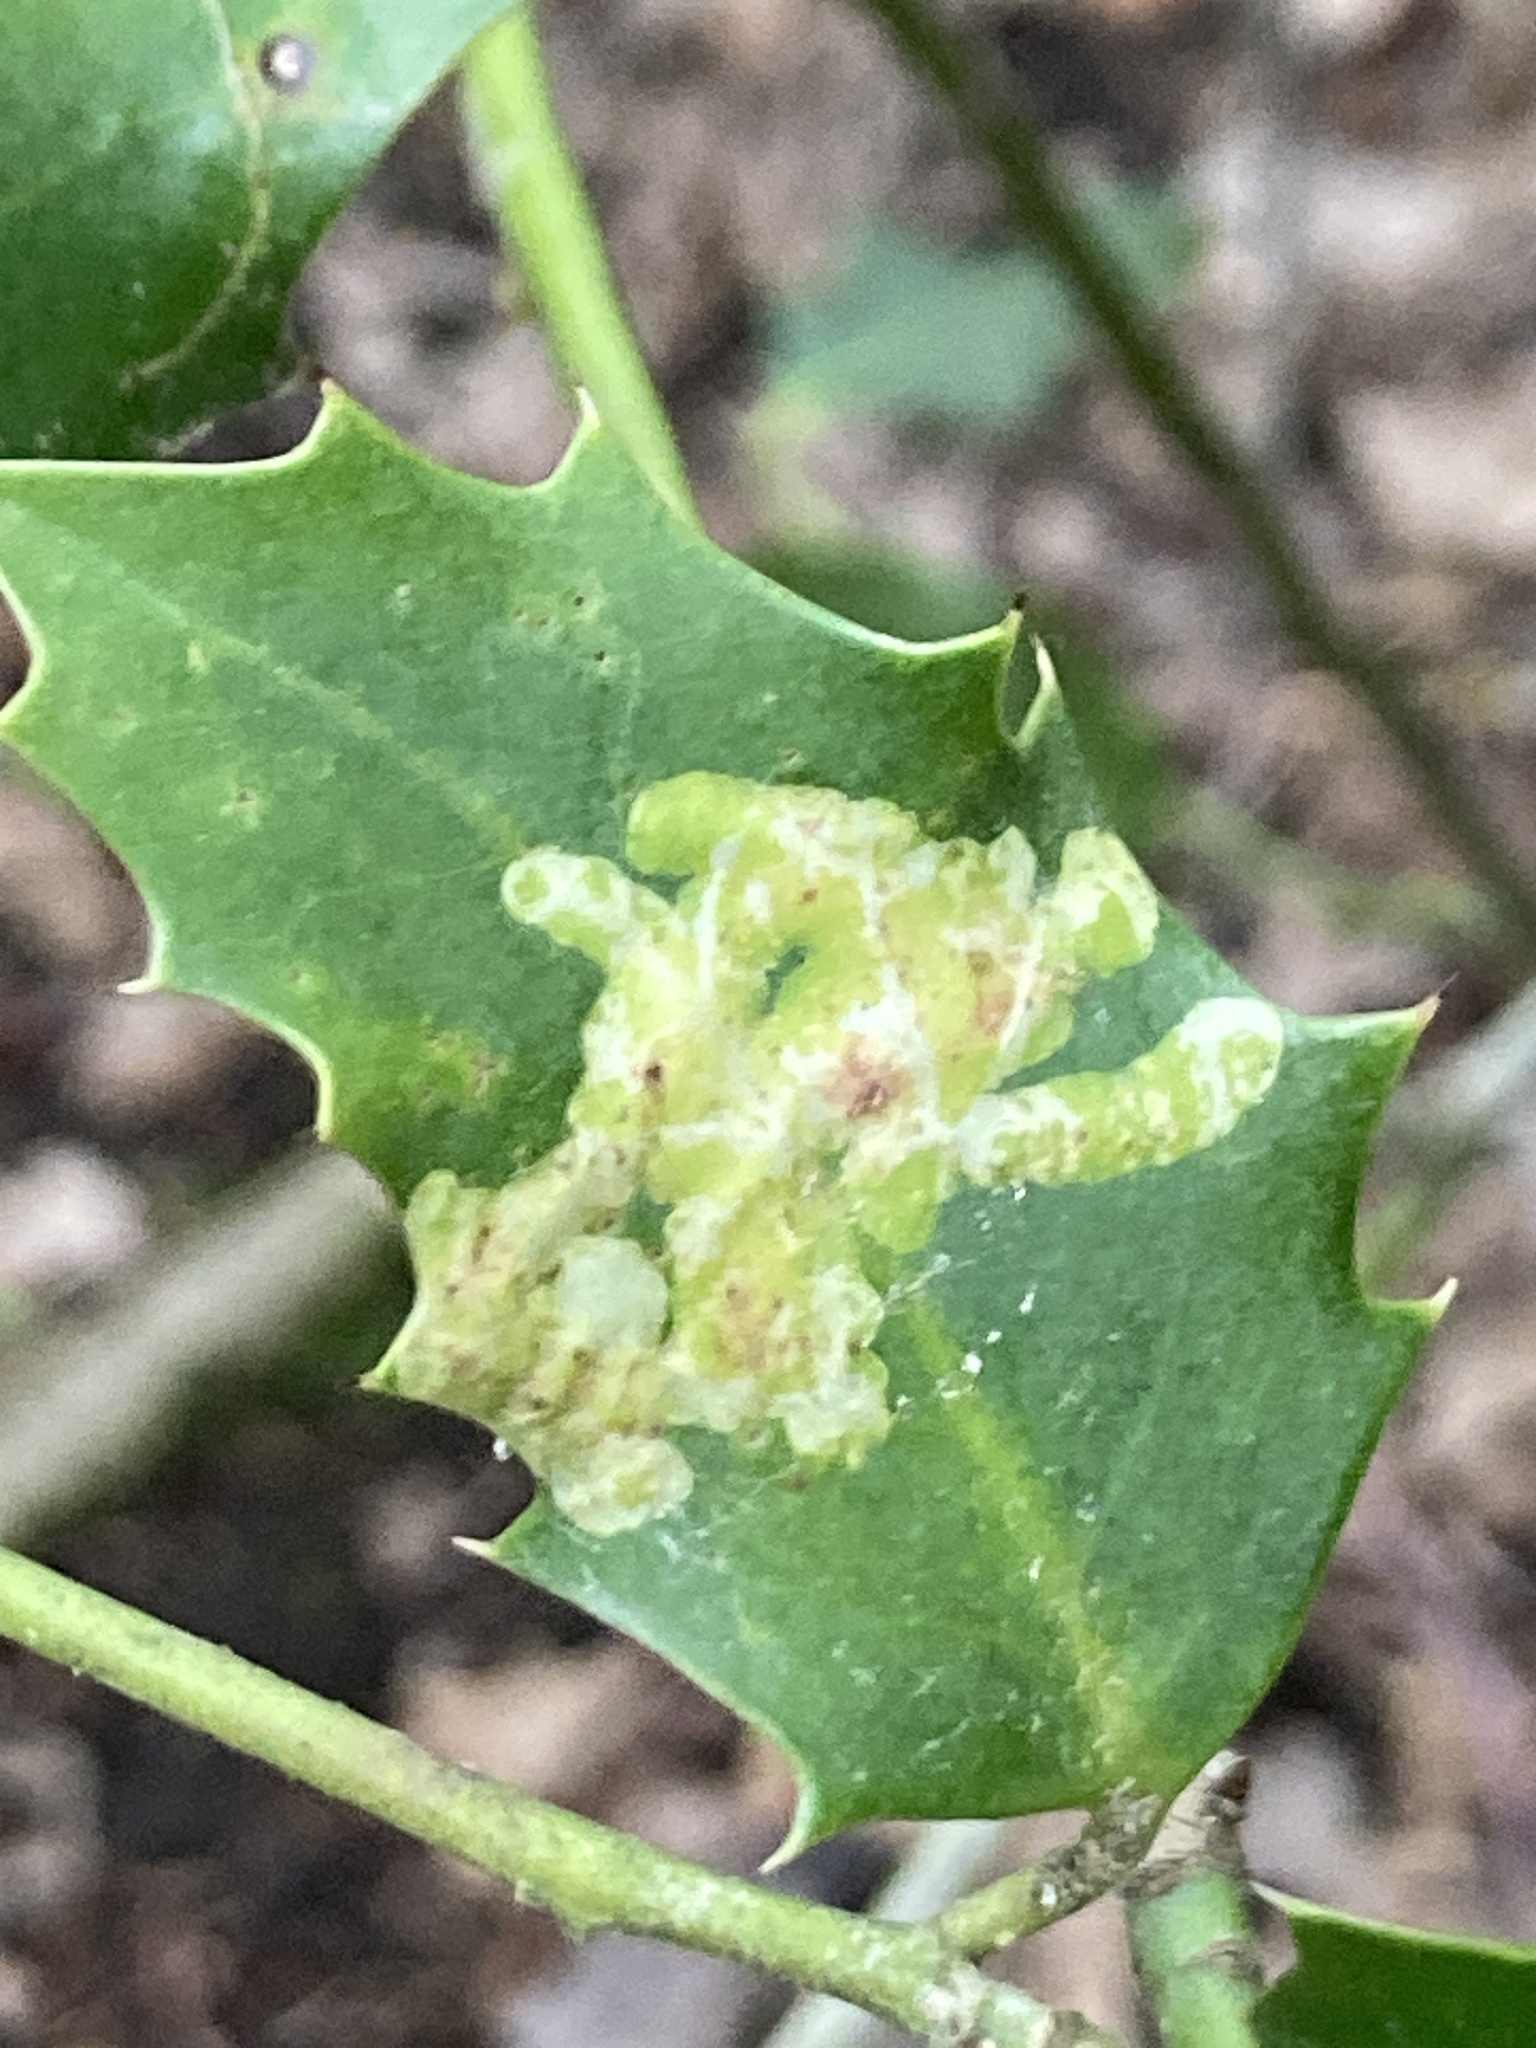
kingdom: Animalia
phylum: Arthropoda
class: Insecta
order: Diptera
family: Agromyzidae
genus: Phytomyza
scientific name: Phytomyza ilicis
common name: Holly leafminer
